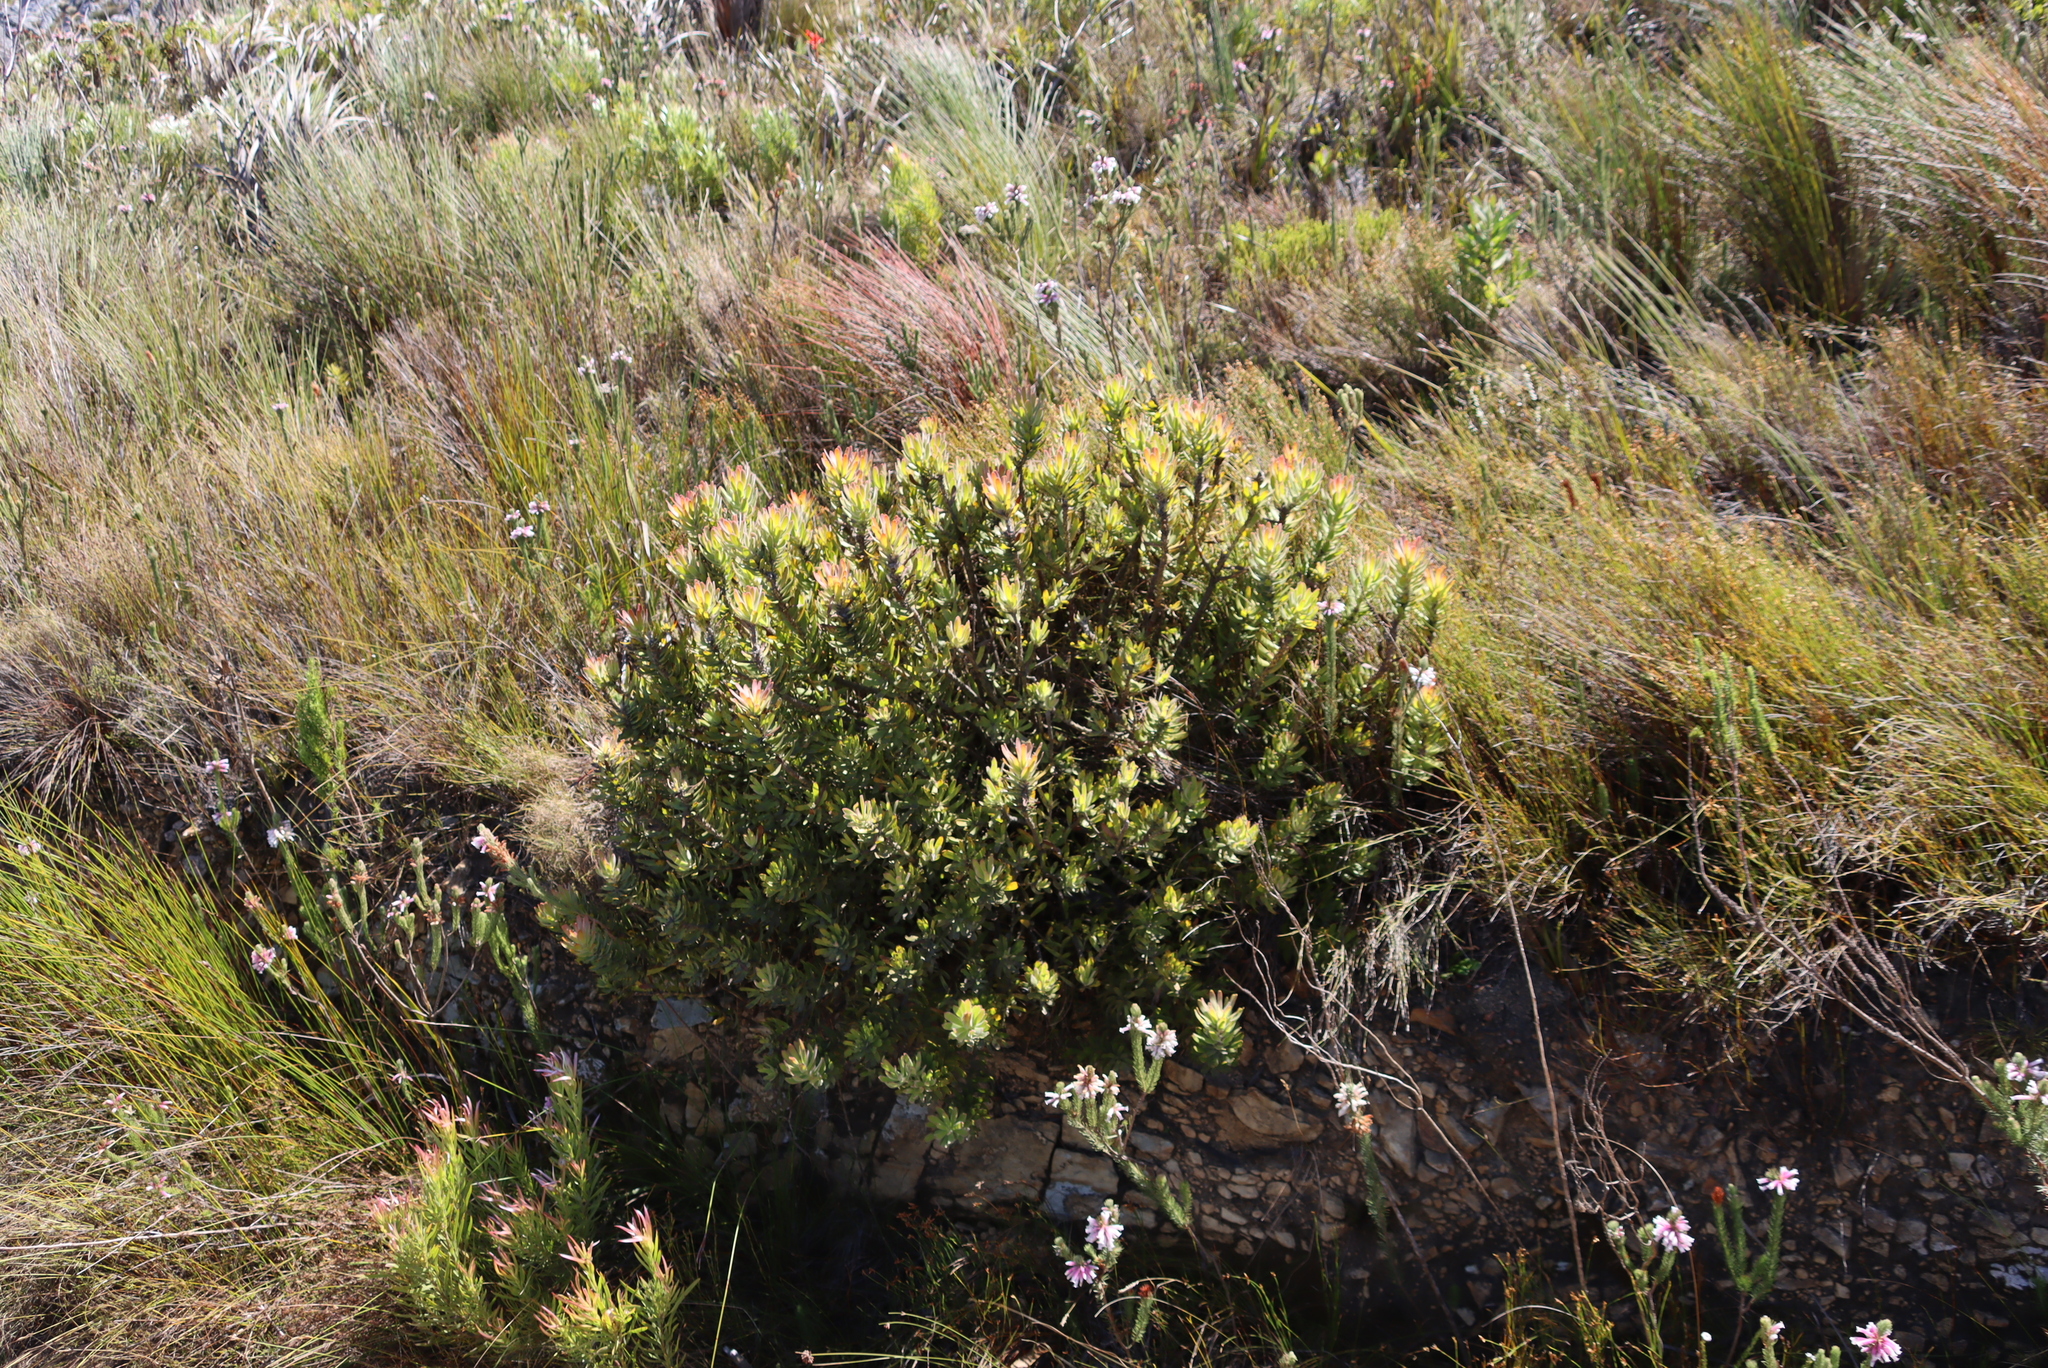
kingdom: Plantae
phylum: Tracheophyta
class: Magnoliopsida
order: Proteales
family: Proteaceae
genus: Mimetes
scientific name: Mimetes cucullatus
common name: Common pagoda
